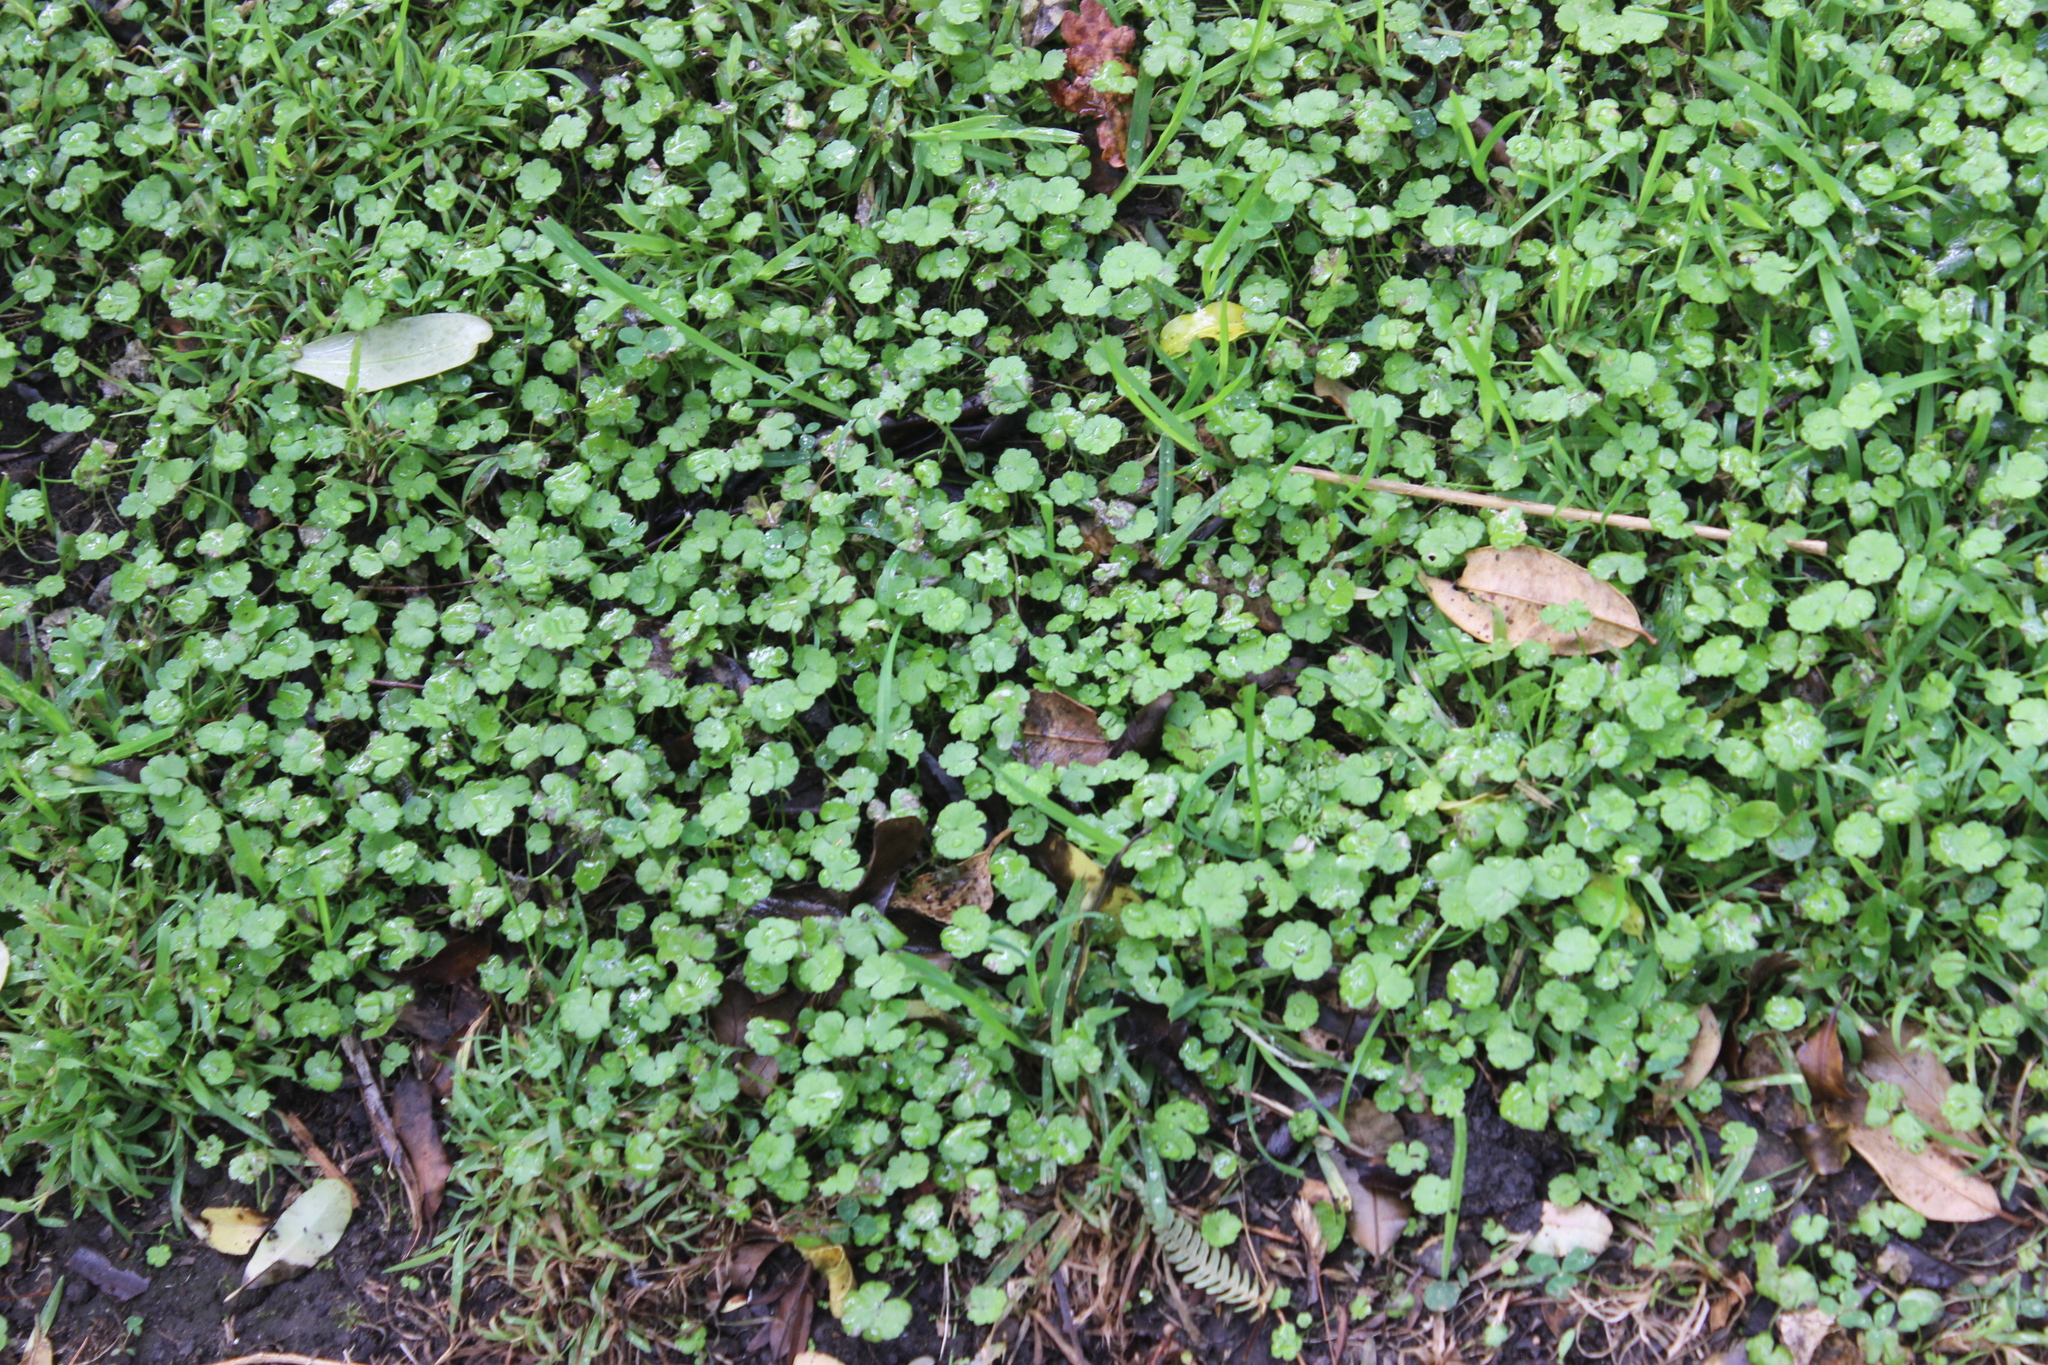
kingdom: Plantae
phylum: Tracheophyta
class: Magnoliopsida
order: Apiales
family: Araliaceae
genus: Hydrocotyle
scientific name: Hydrocotyle heteromeria
